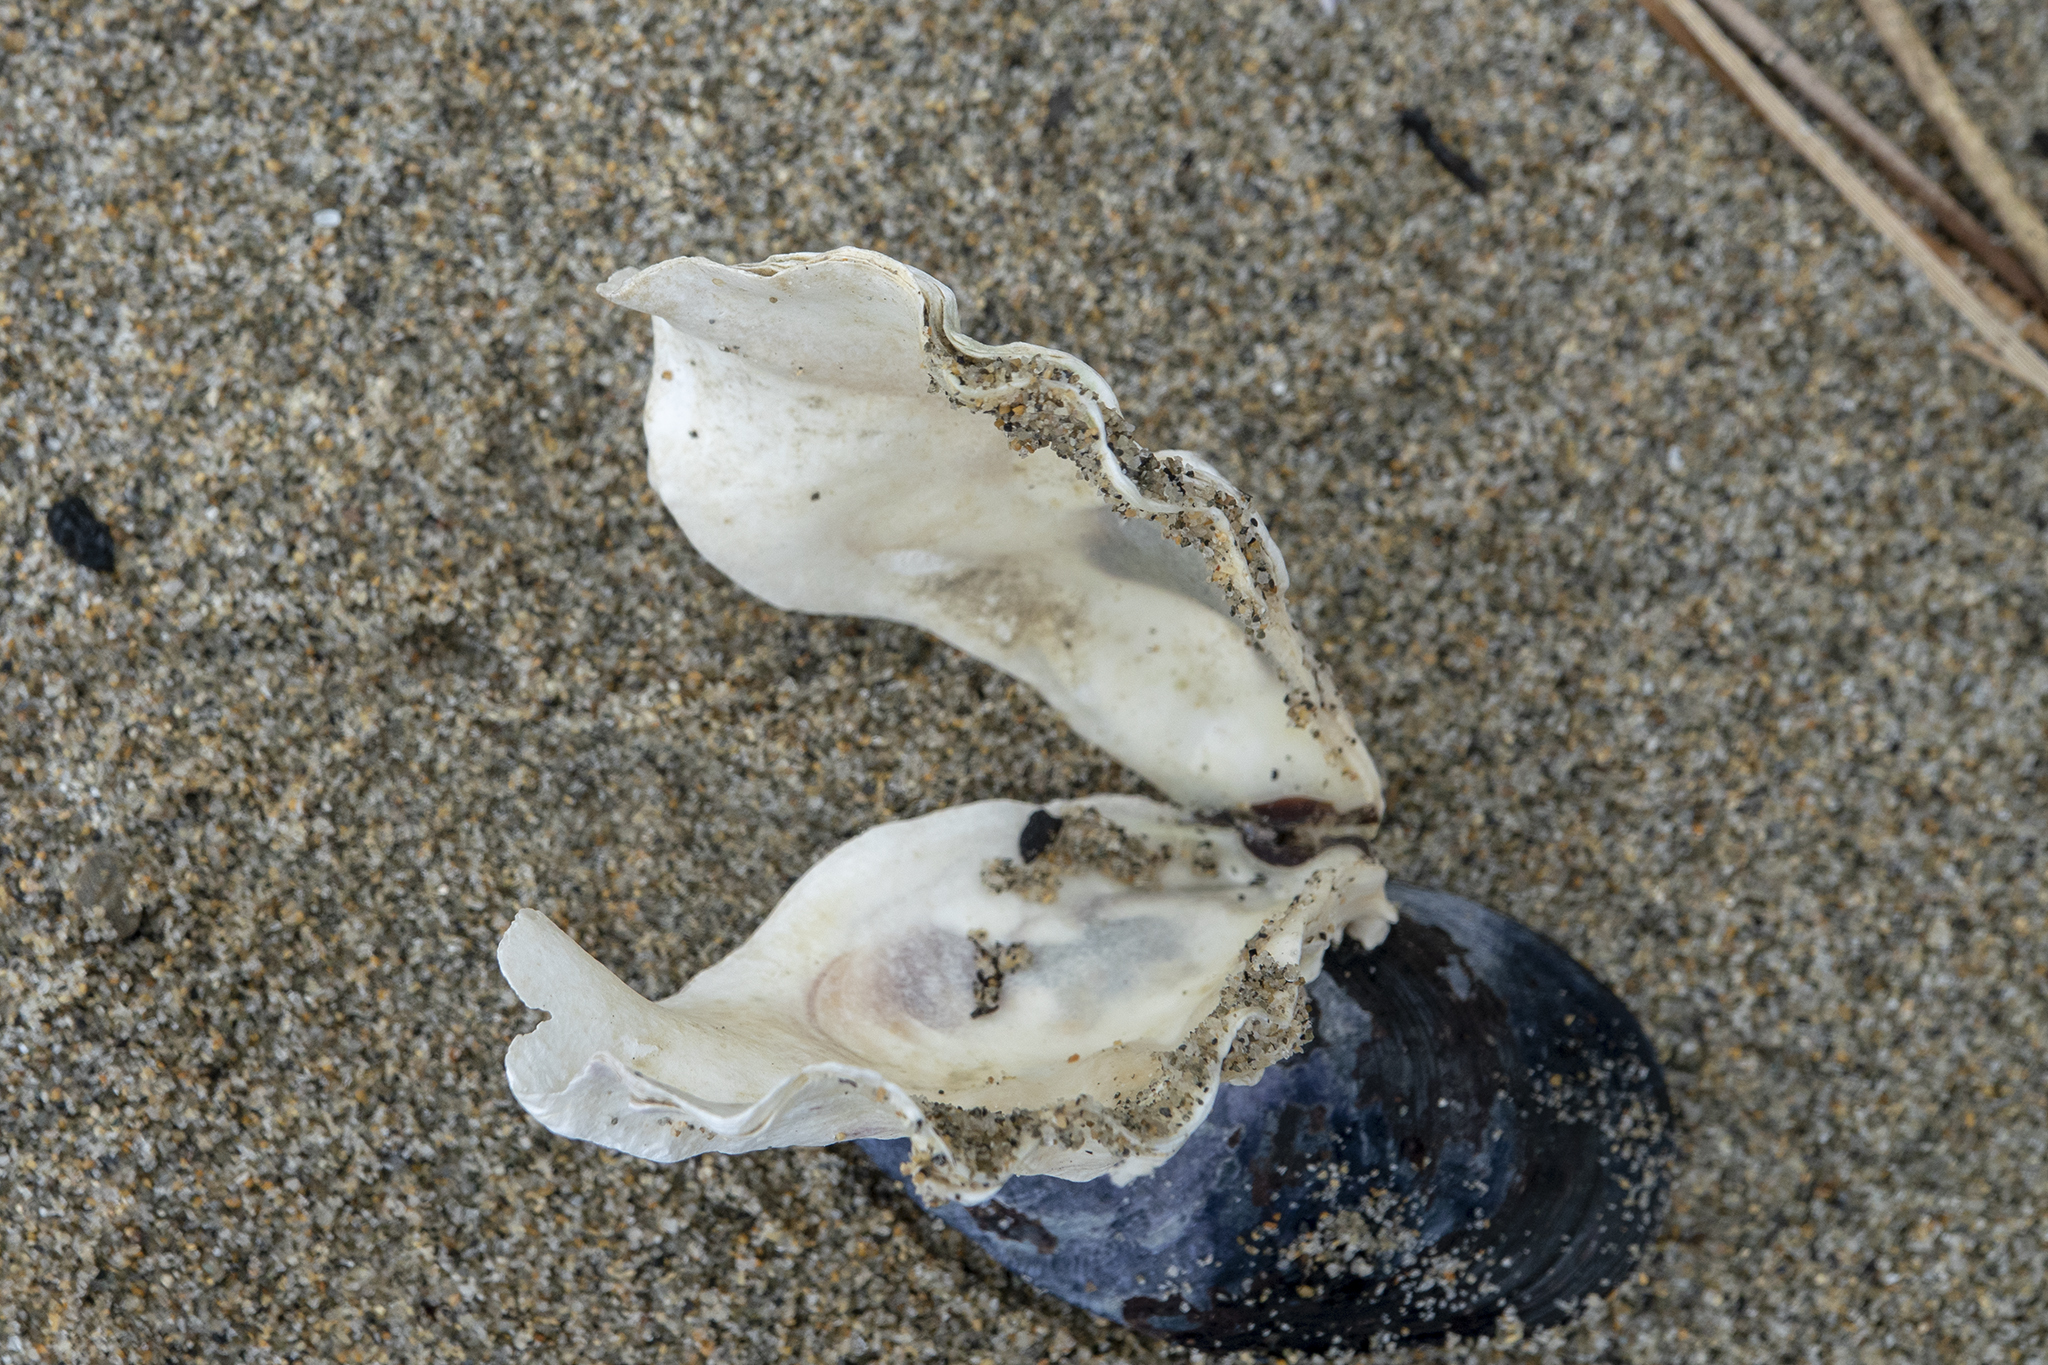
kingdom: Animalia
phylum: Mollusca
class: Bivalvia
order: Ostreida
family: Ostreidae
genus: Magallana
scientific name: Magallana gigas
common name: Pacific oyster
